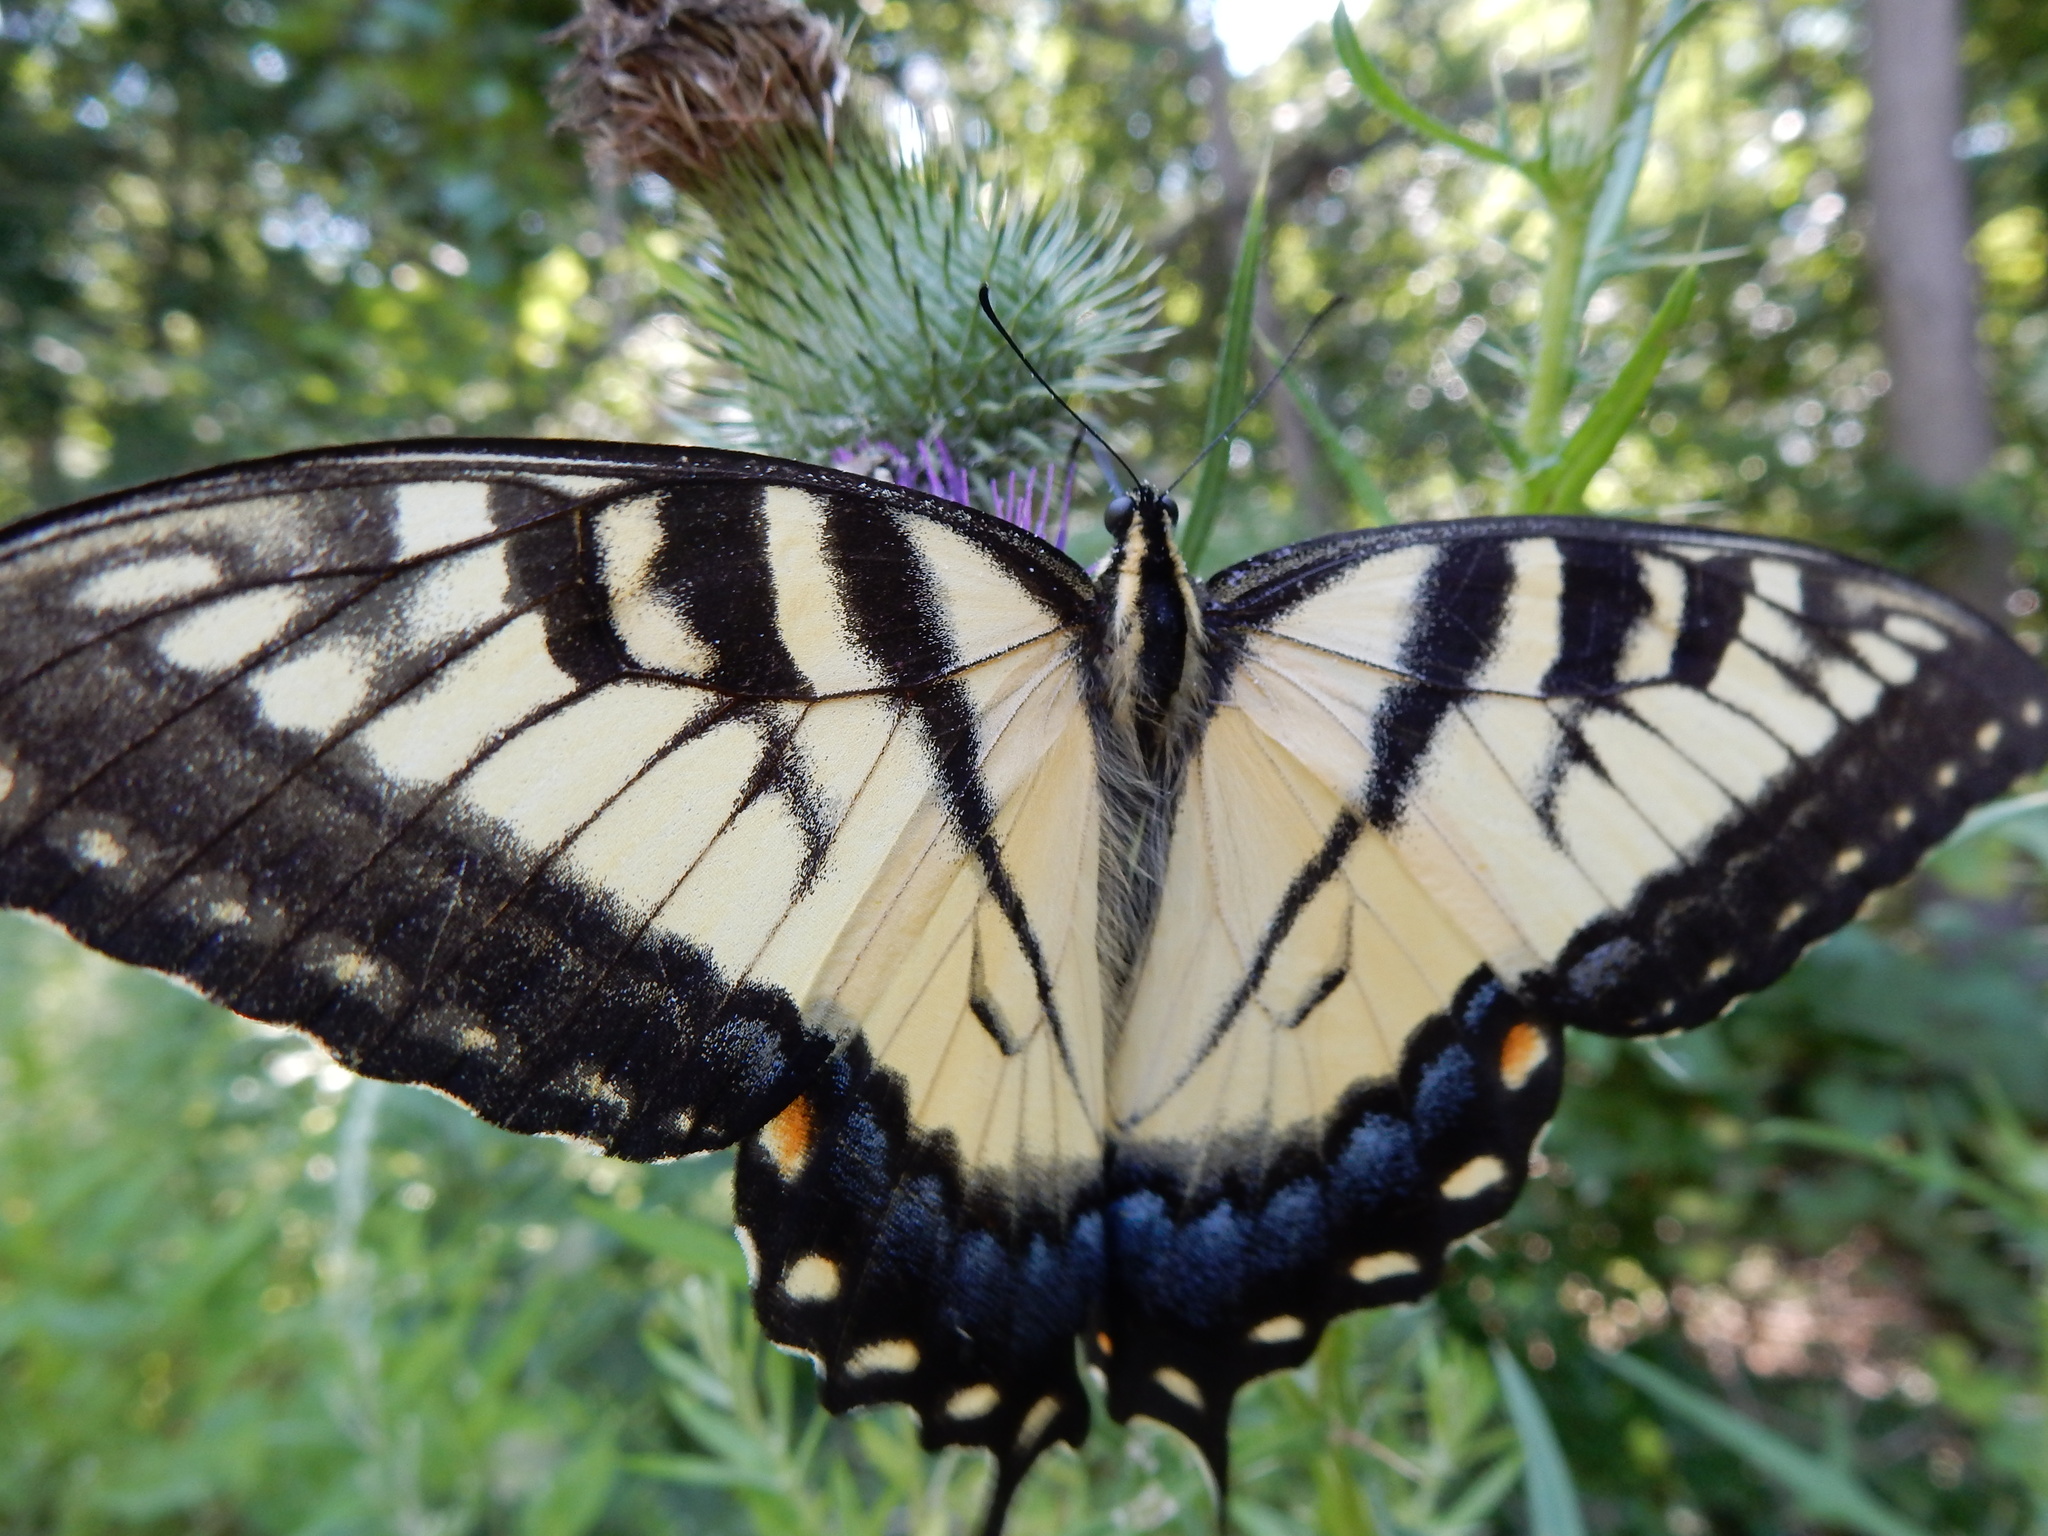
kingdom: Animalia
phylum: Arthropoda
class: Insecta
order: Lepidoptera
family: Papilionidae
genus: Papilio
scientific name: Papilio glaucus
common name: Tiger swallowtail
